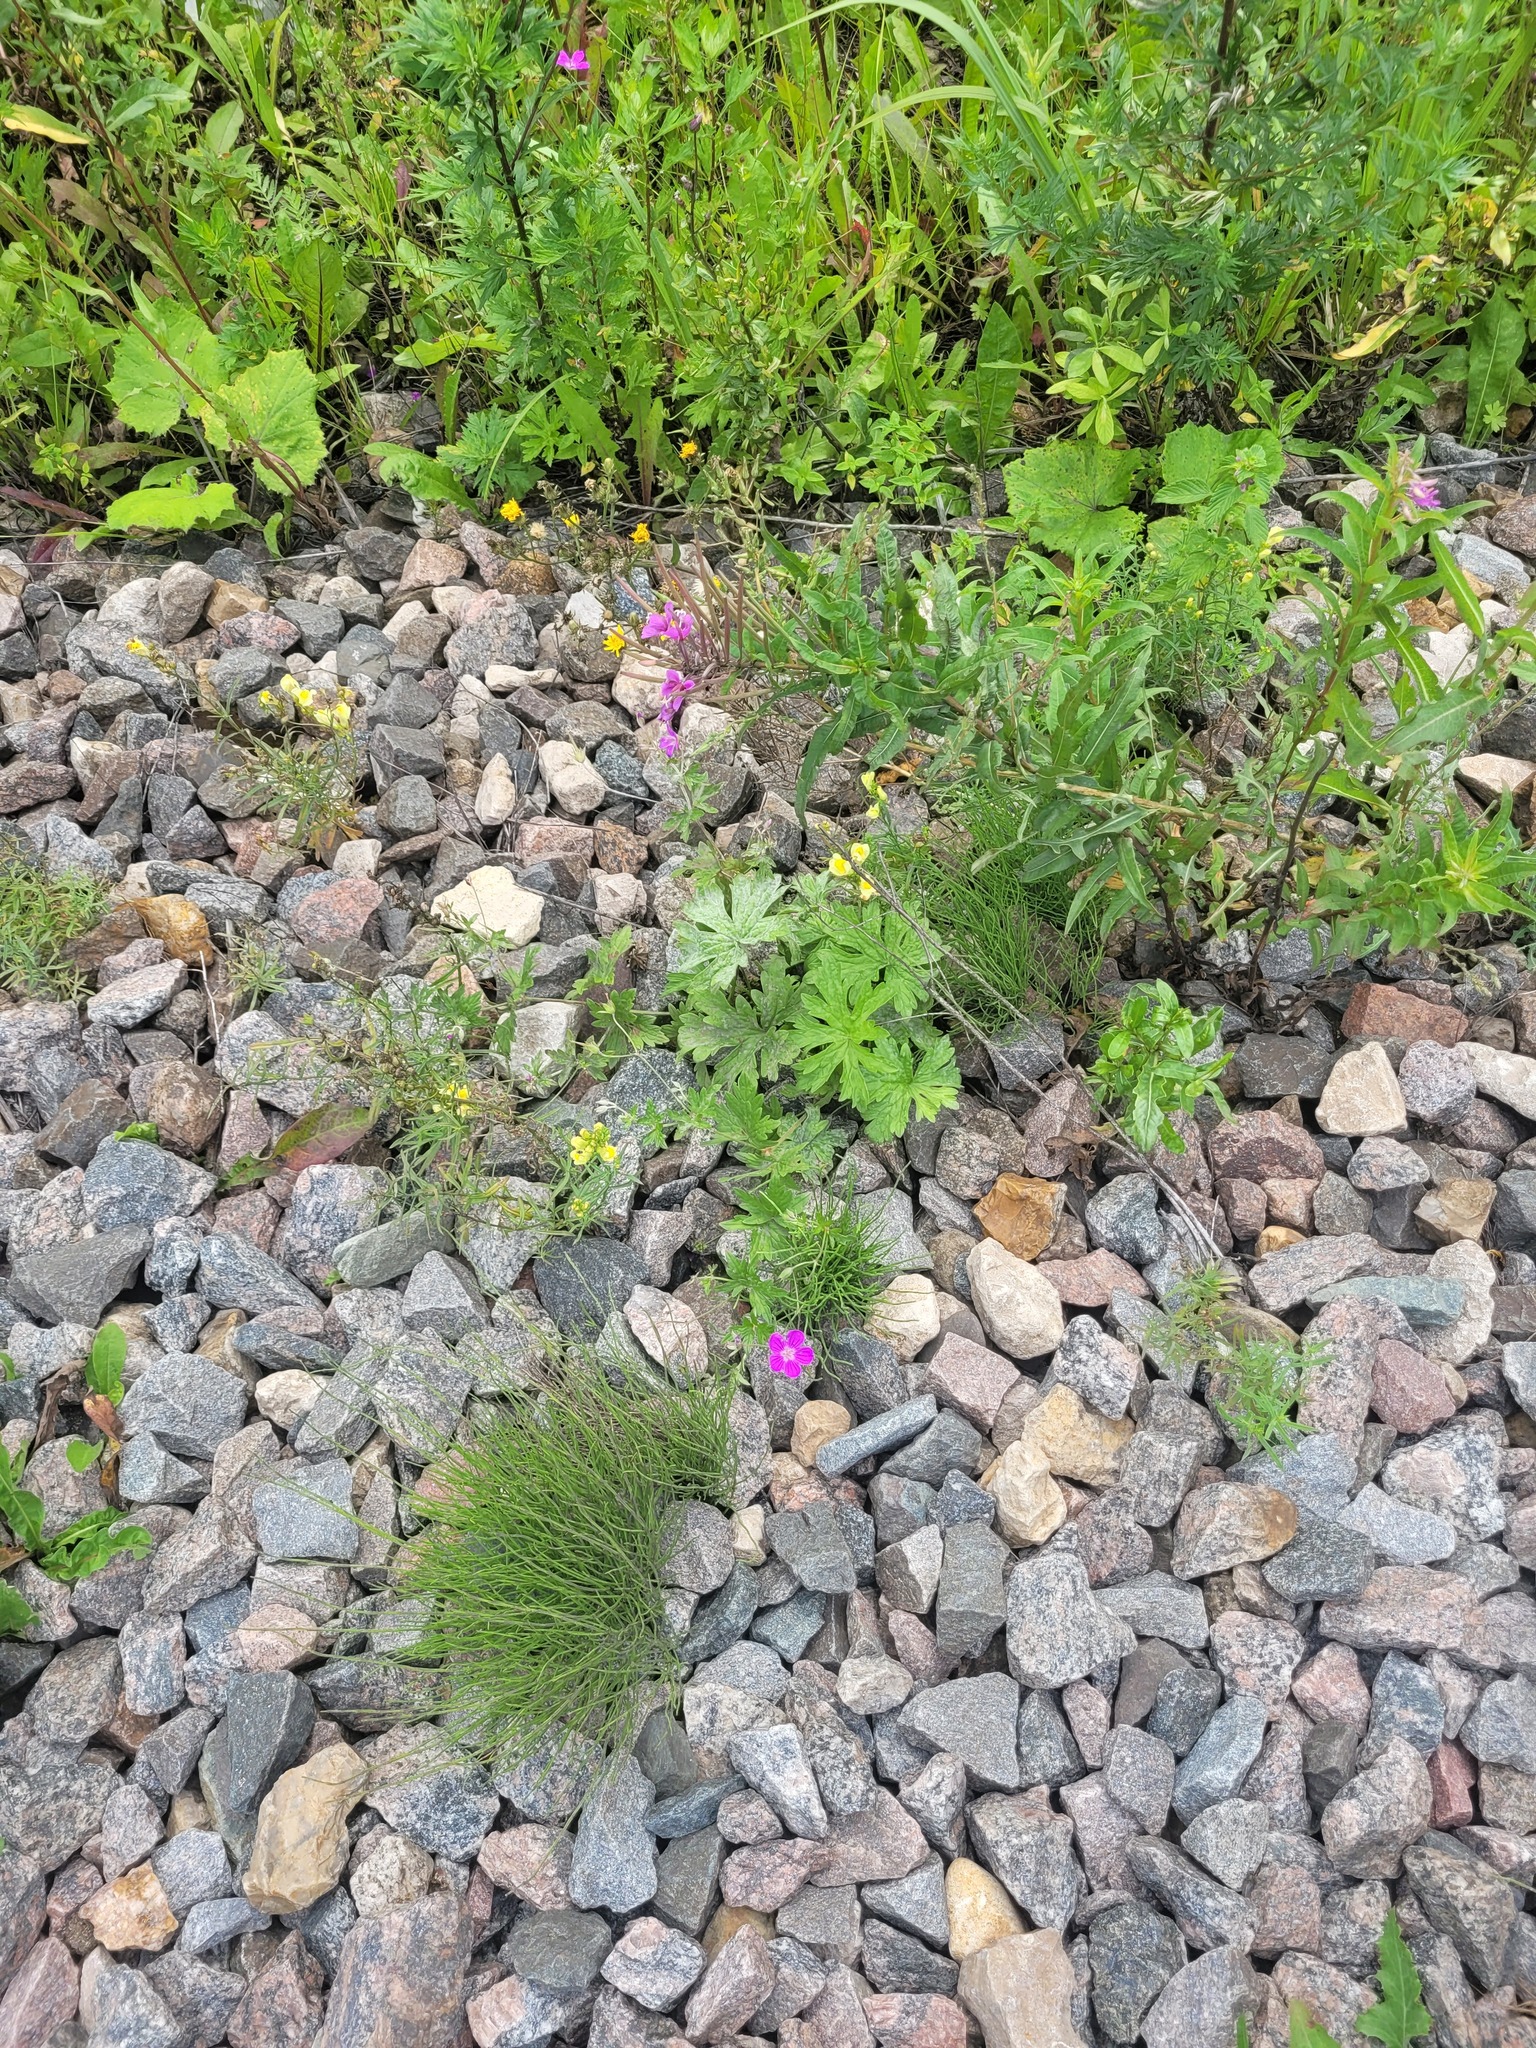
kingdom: Plantae
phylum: Tracheophyta
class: Magnoliopsida
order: Geraniales
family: Geraniaceae
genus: Geranium
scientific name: Geranium palustre
